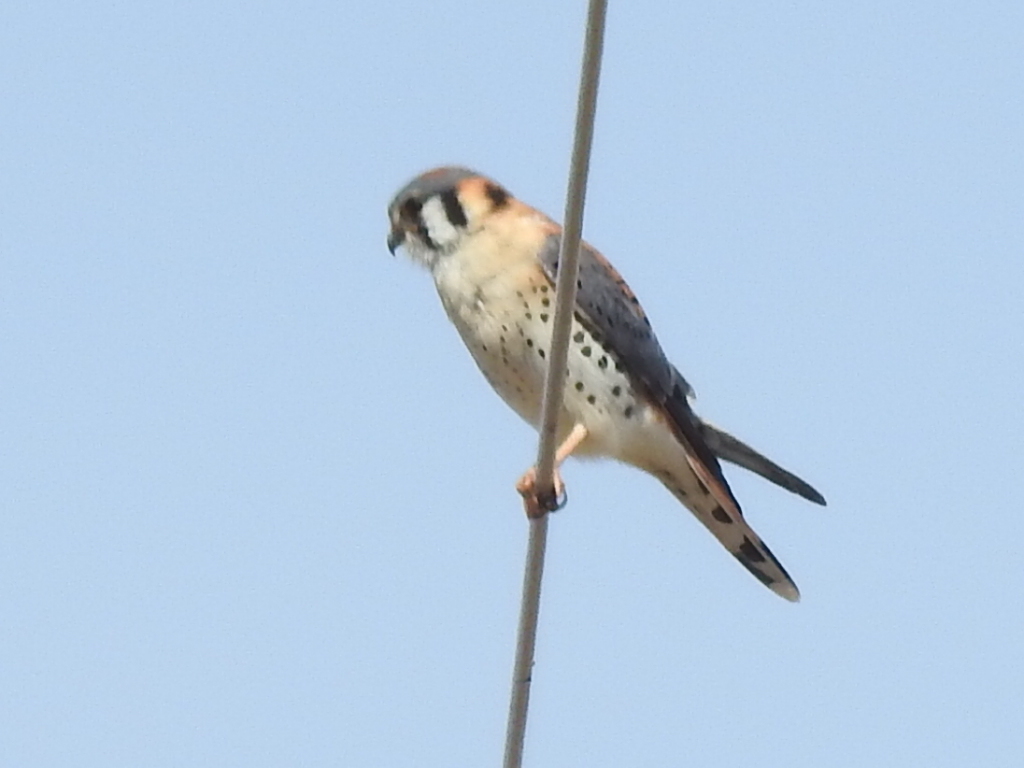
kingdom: Animalia
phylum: Chordata
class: Aves
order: Falconiformes
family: Falconidae
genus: Falco
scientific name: Falco sparverius
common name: American kestrel
